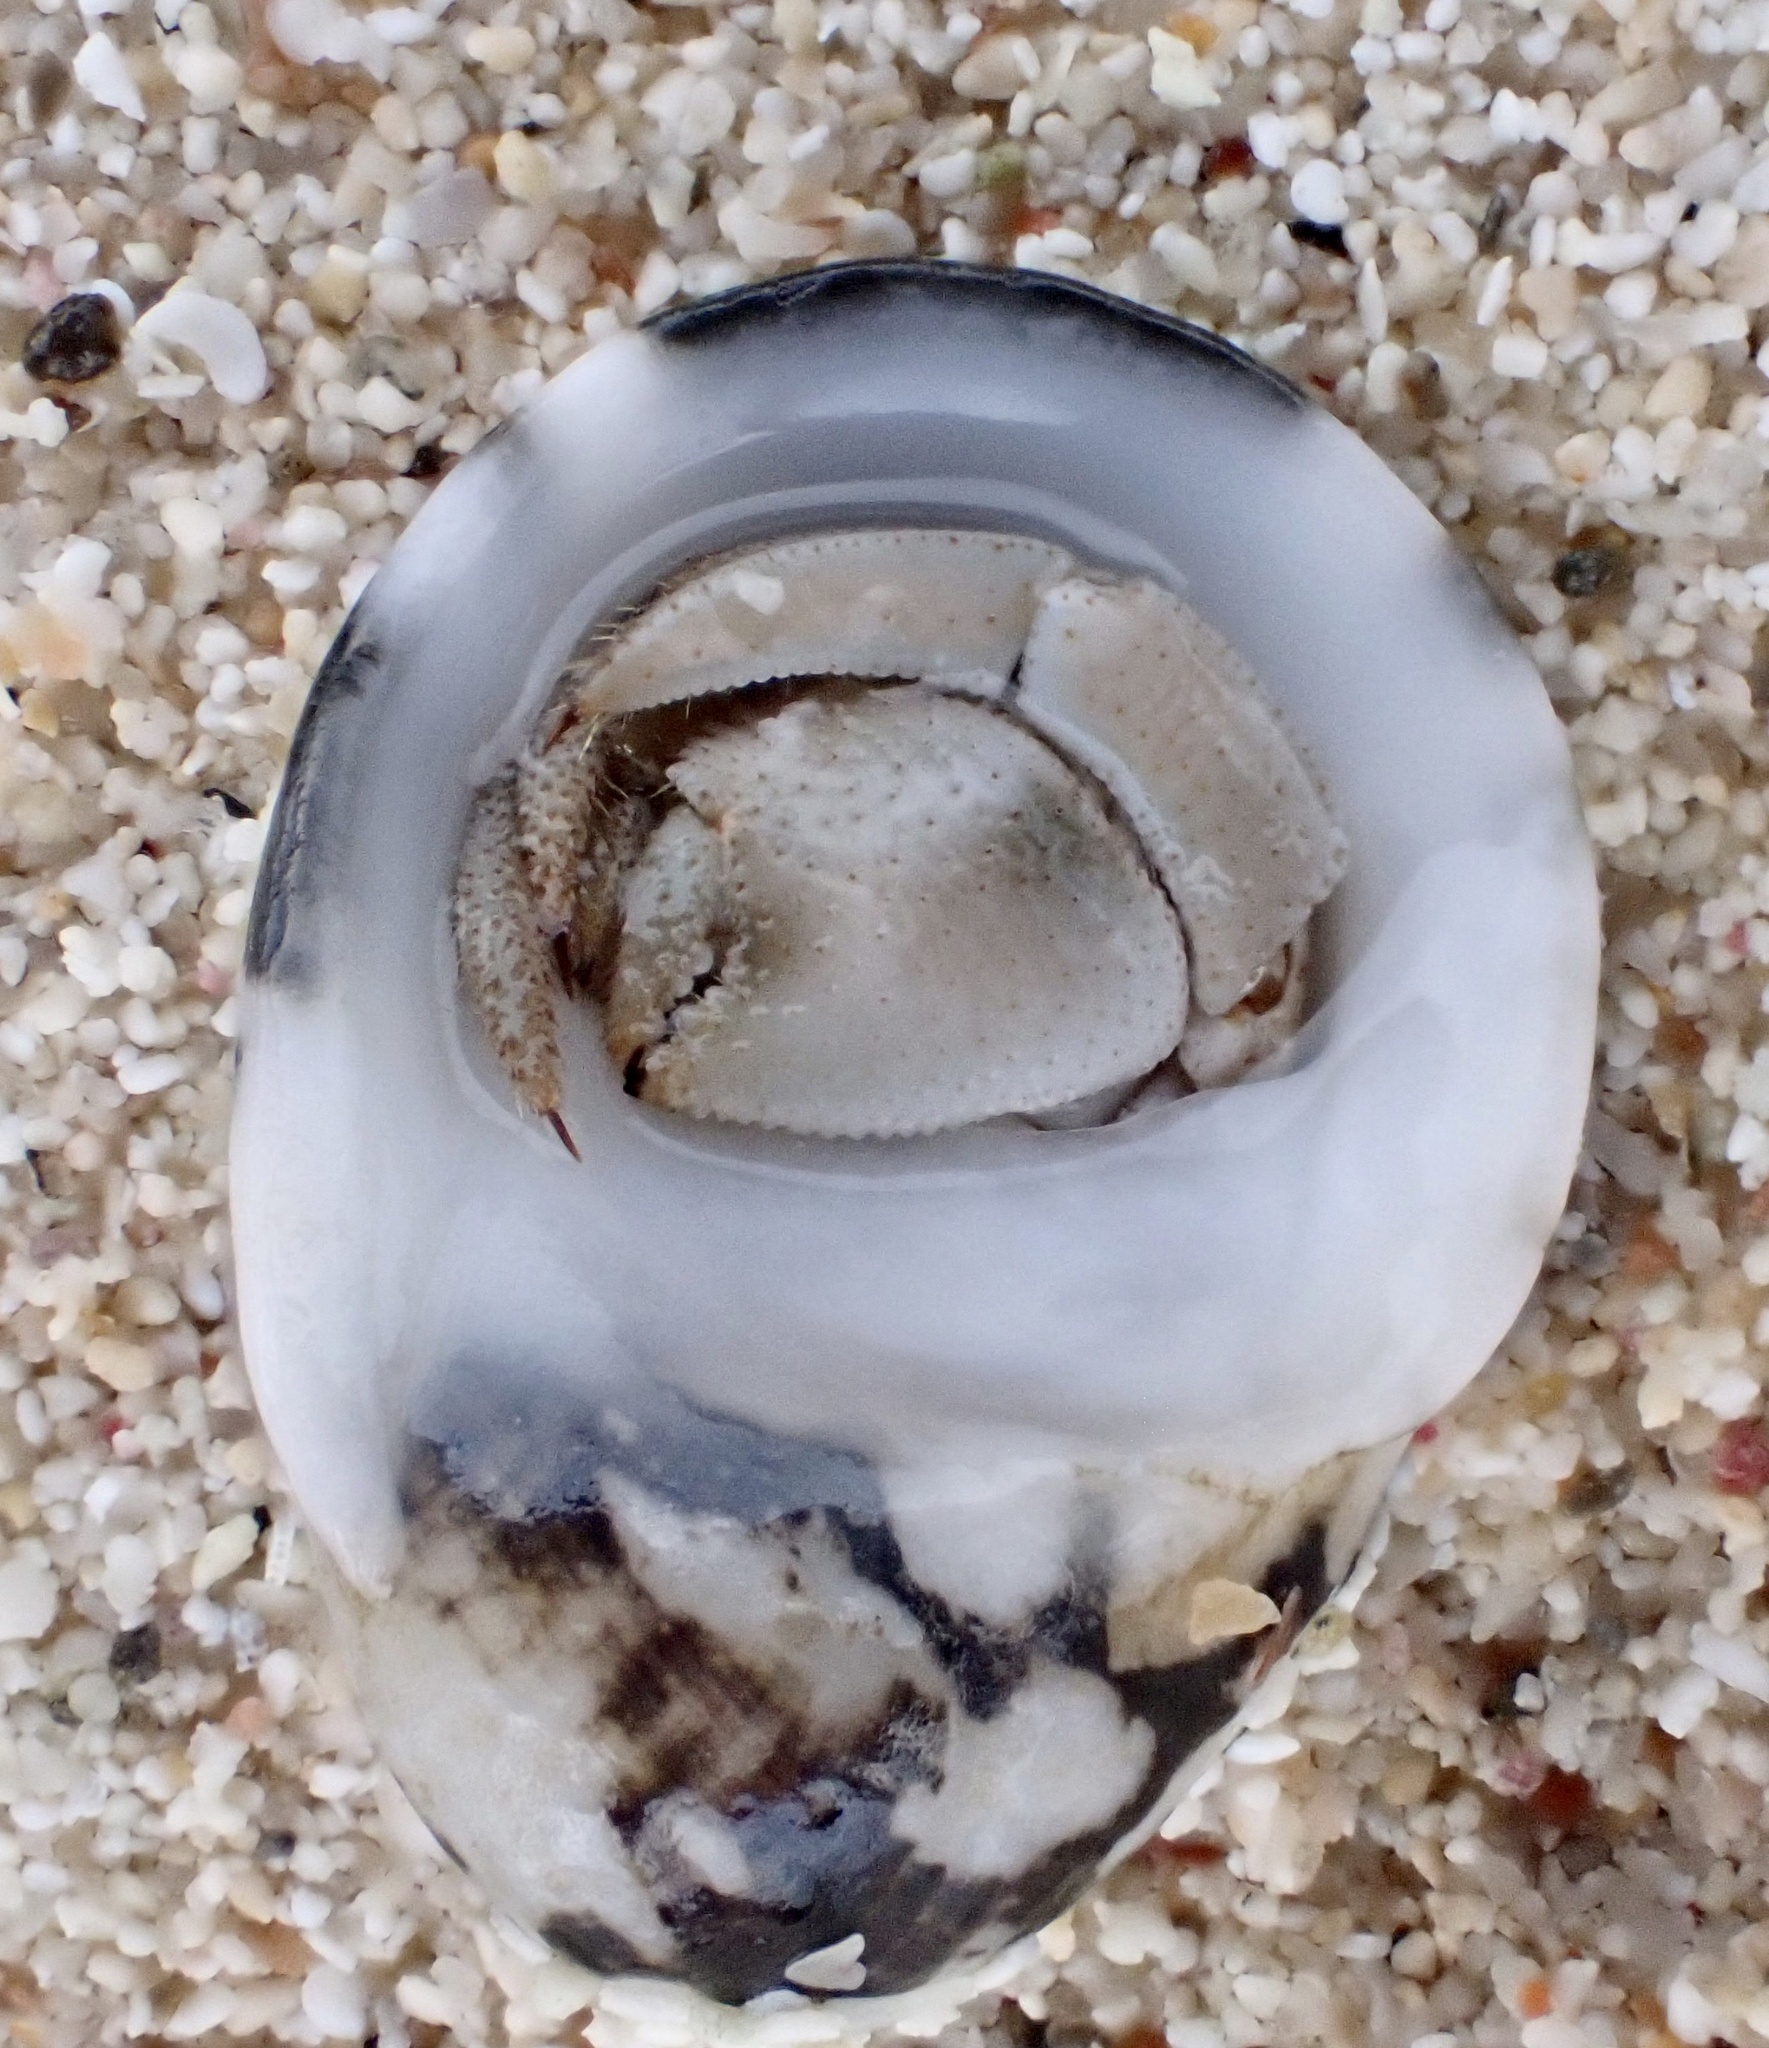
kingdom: Animalia
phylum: Arthropoda
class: Malacostraca
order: Decapoda
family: Coenobitidae
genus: Coenobita
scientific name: Coenobita scaevola
